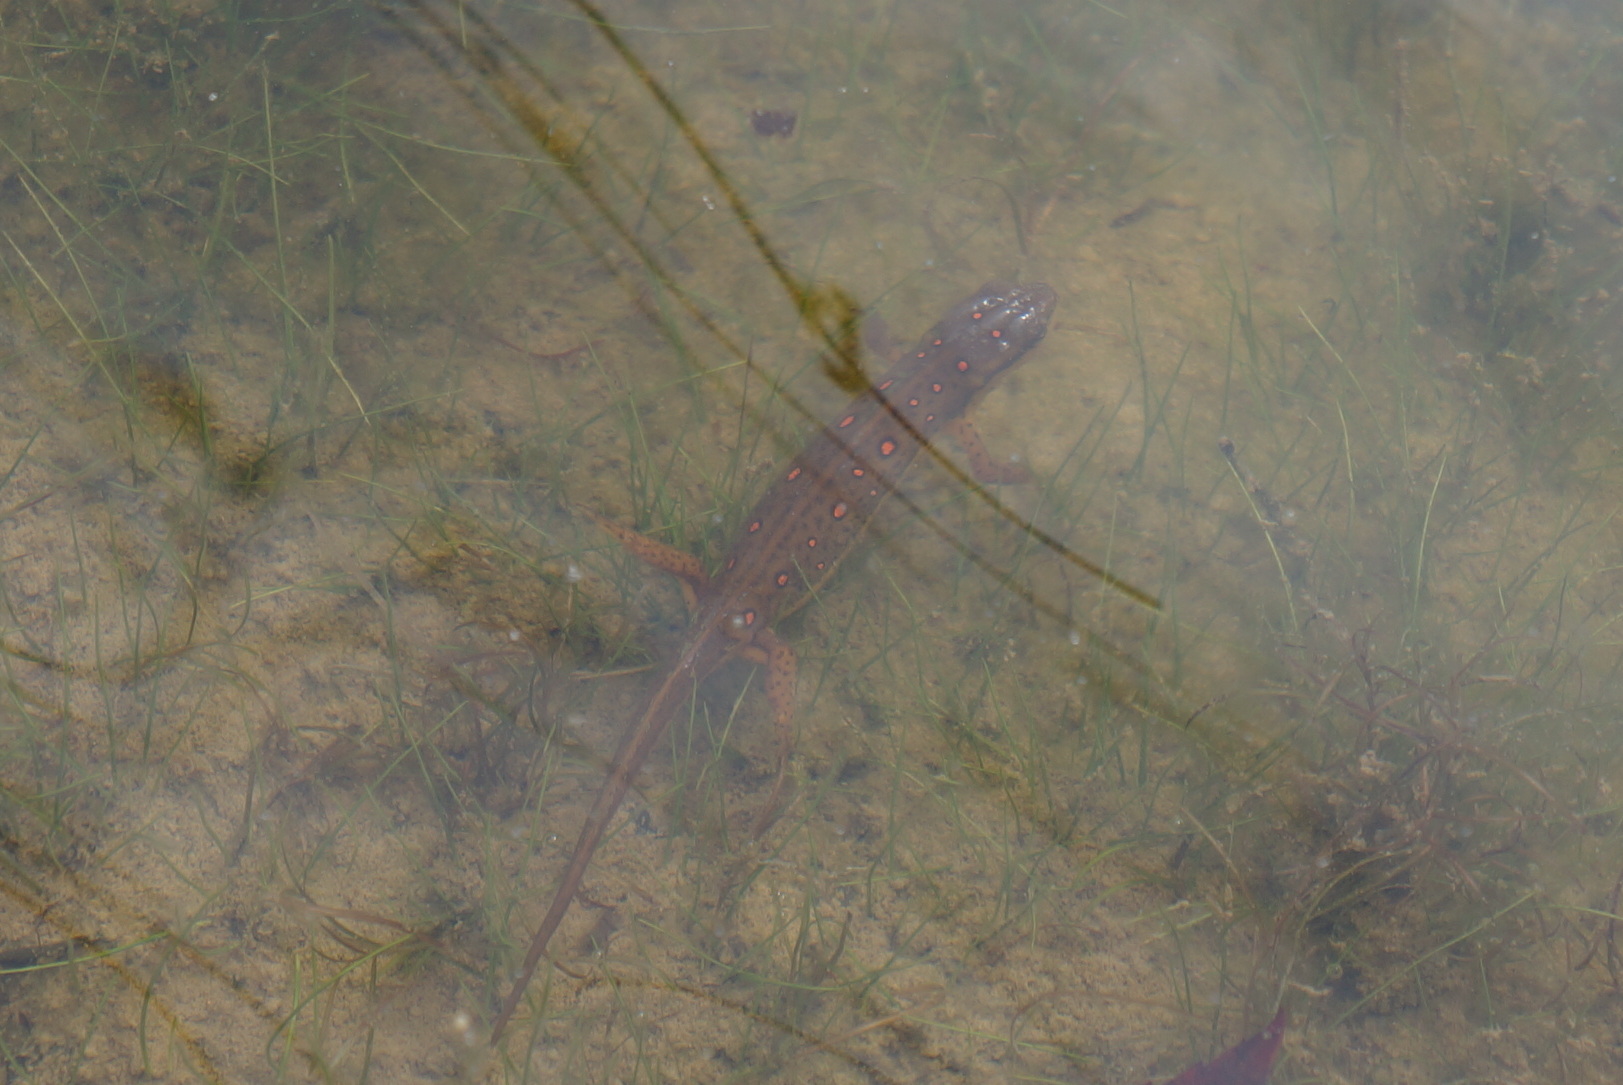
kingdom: Animalia
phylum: Chordata
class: Amphibia
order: Caudata
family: Salamandridae
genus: Notophthalmus
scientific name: Notophthalmus viridescens
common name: Eastern newt
